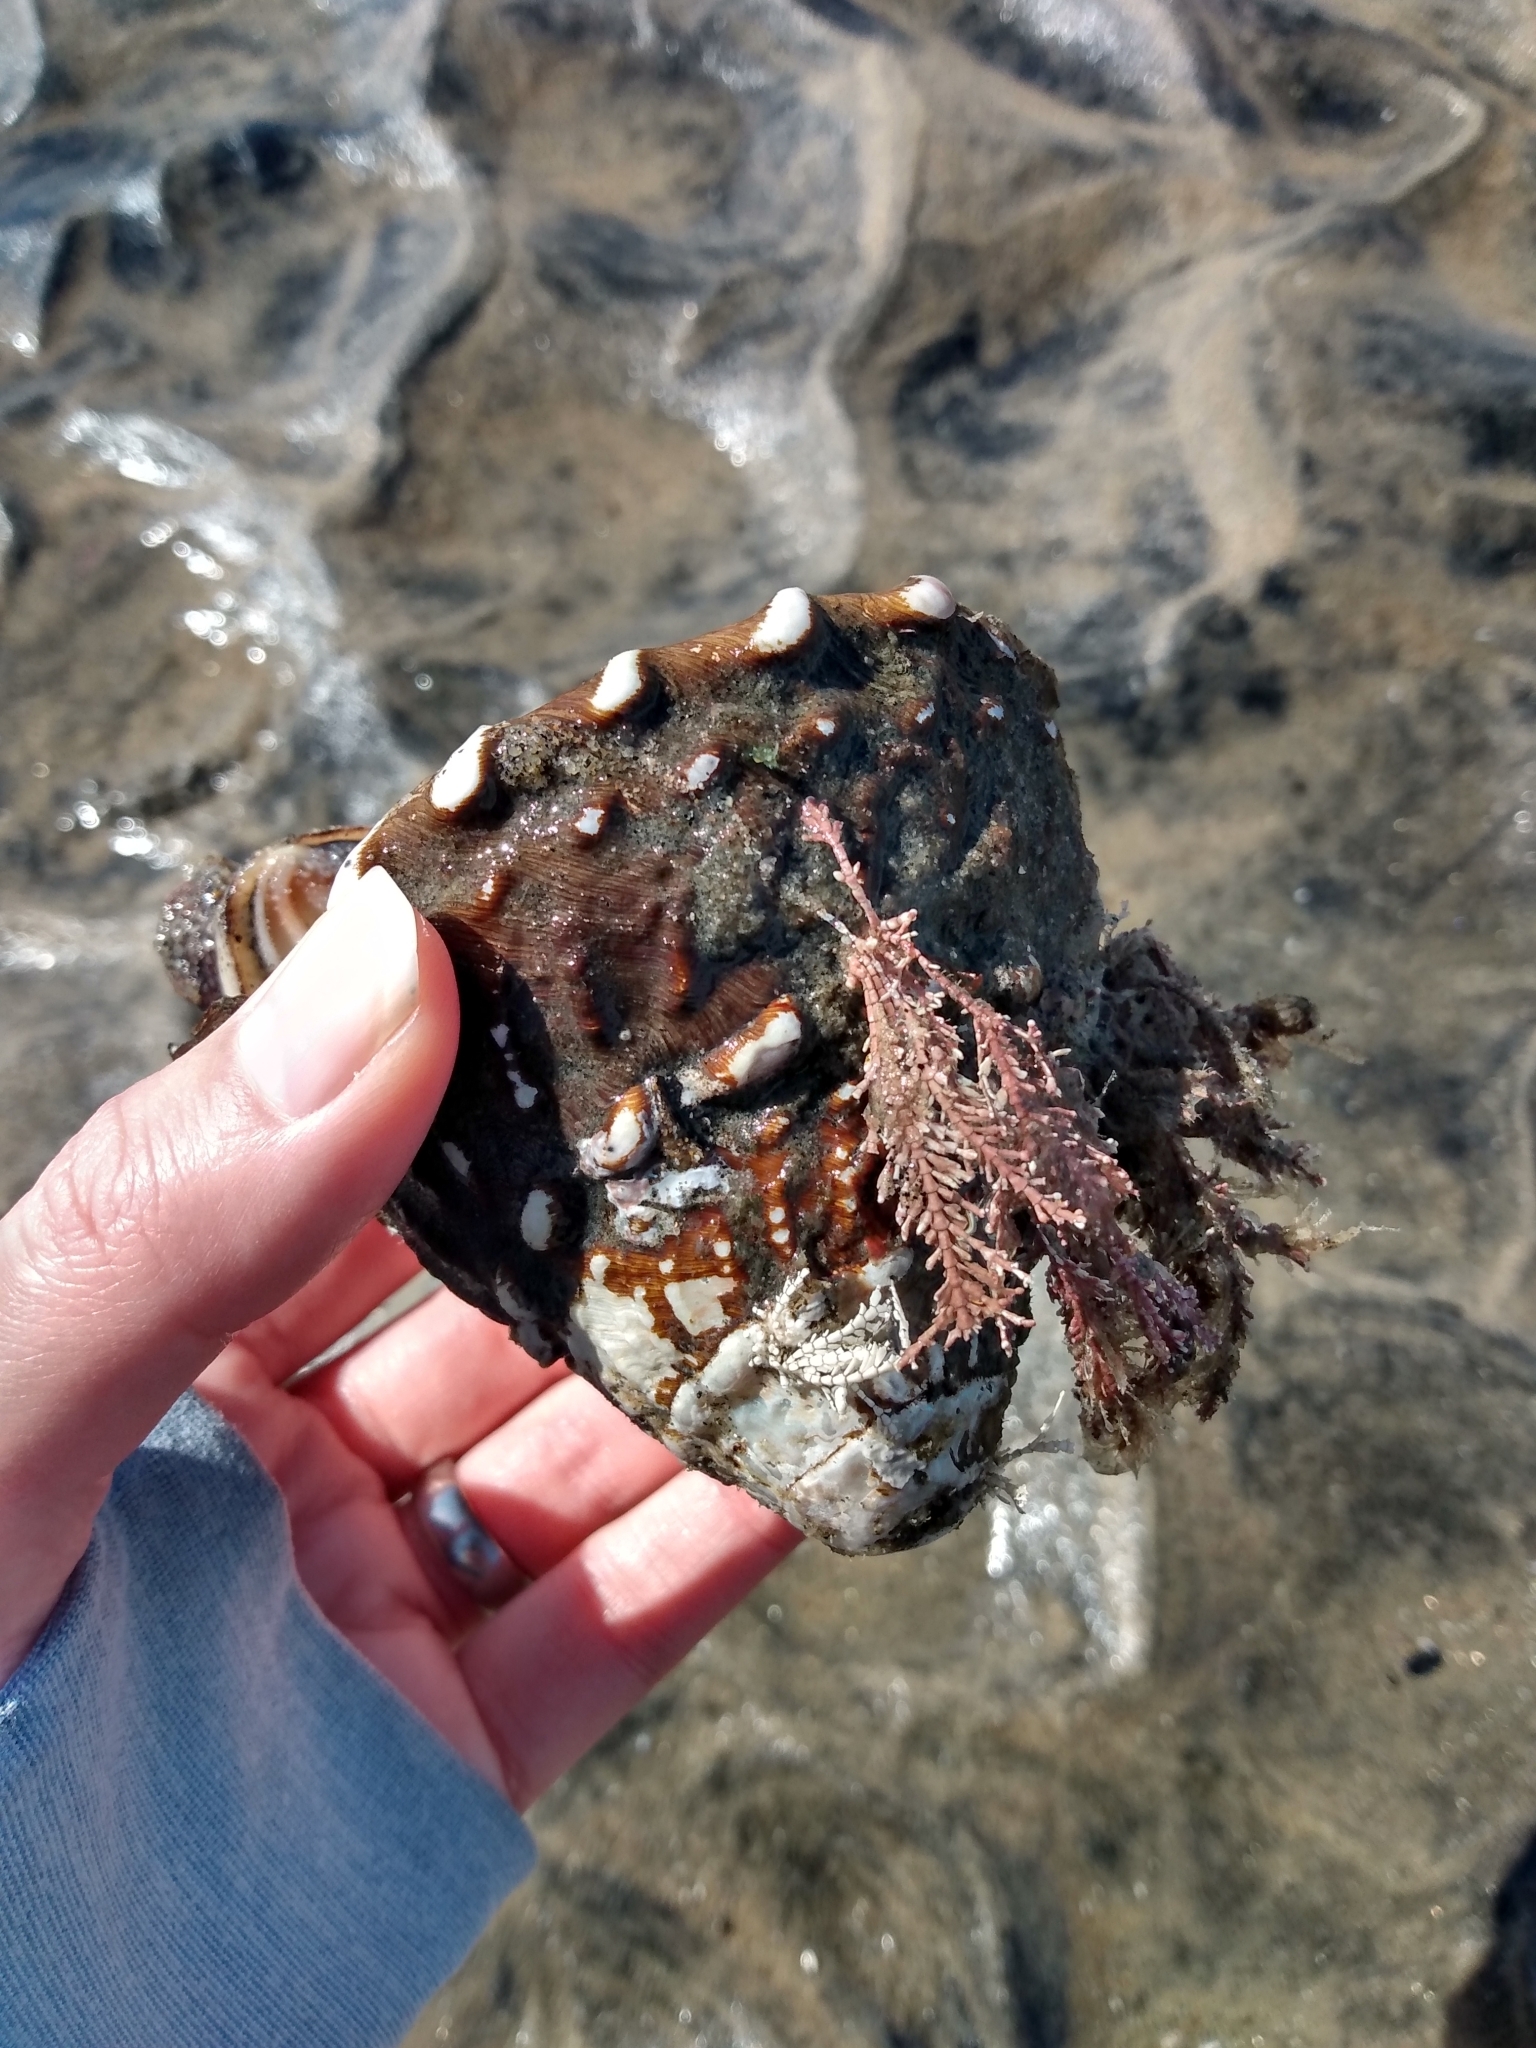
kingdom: Animalia
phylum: Mollusca
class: Gastropoda
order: Trochida
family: Turbinidae
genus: Megastraea
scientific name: Megastraea undosa
